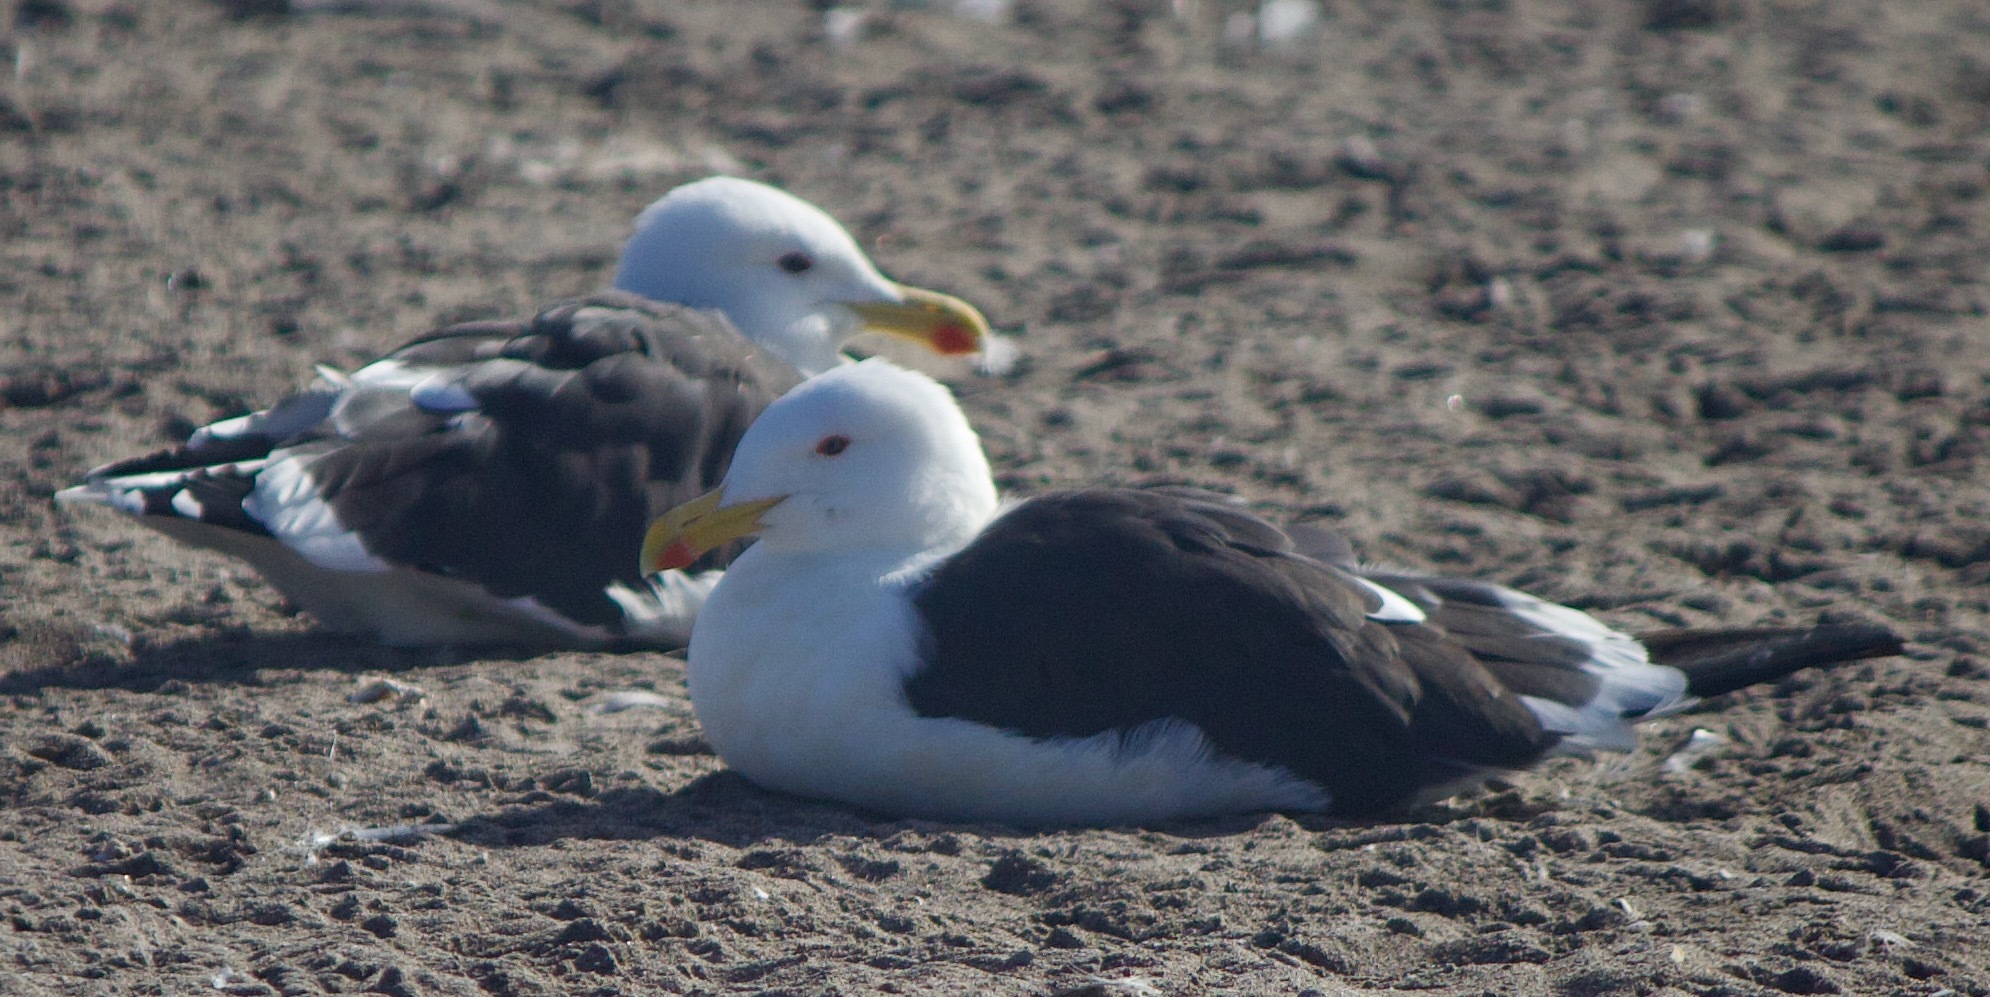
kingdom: Animalia
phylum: Chordata
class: Aves
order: Charadriiformes
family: Laridae
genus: Larus
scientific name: Larus dominicanus
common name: Kelp gull
